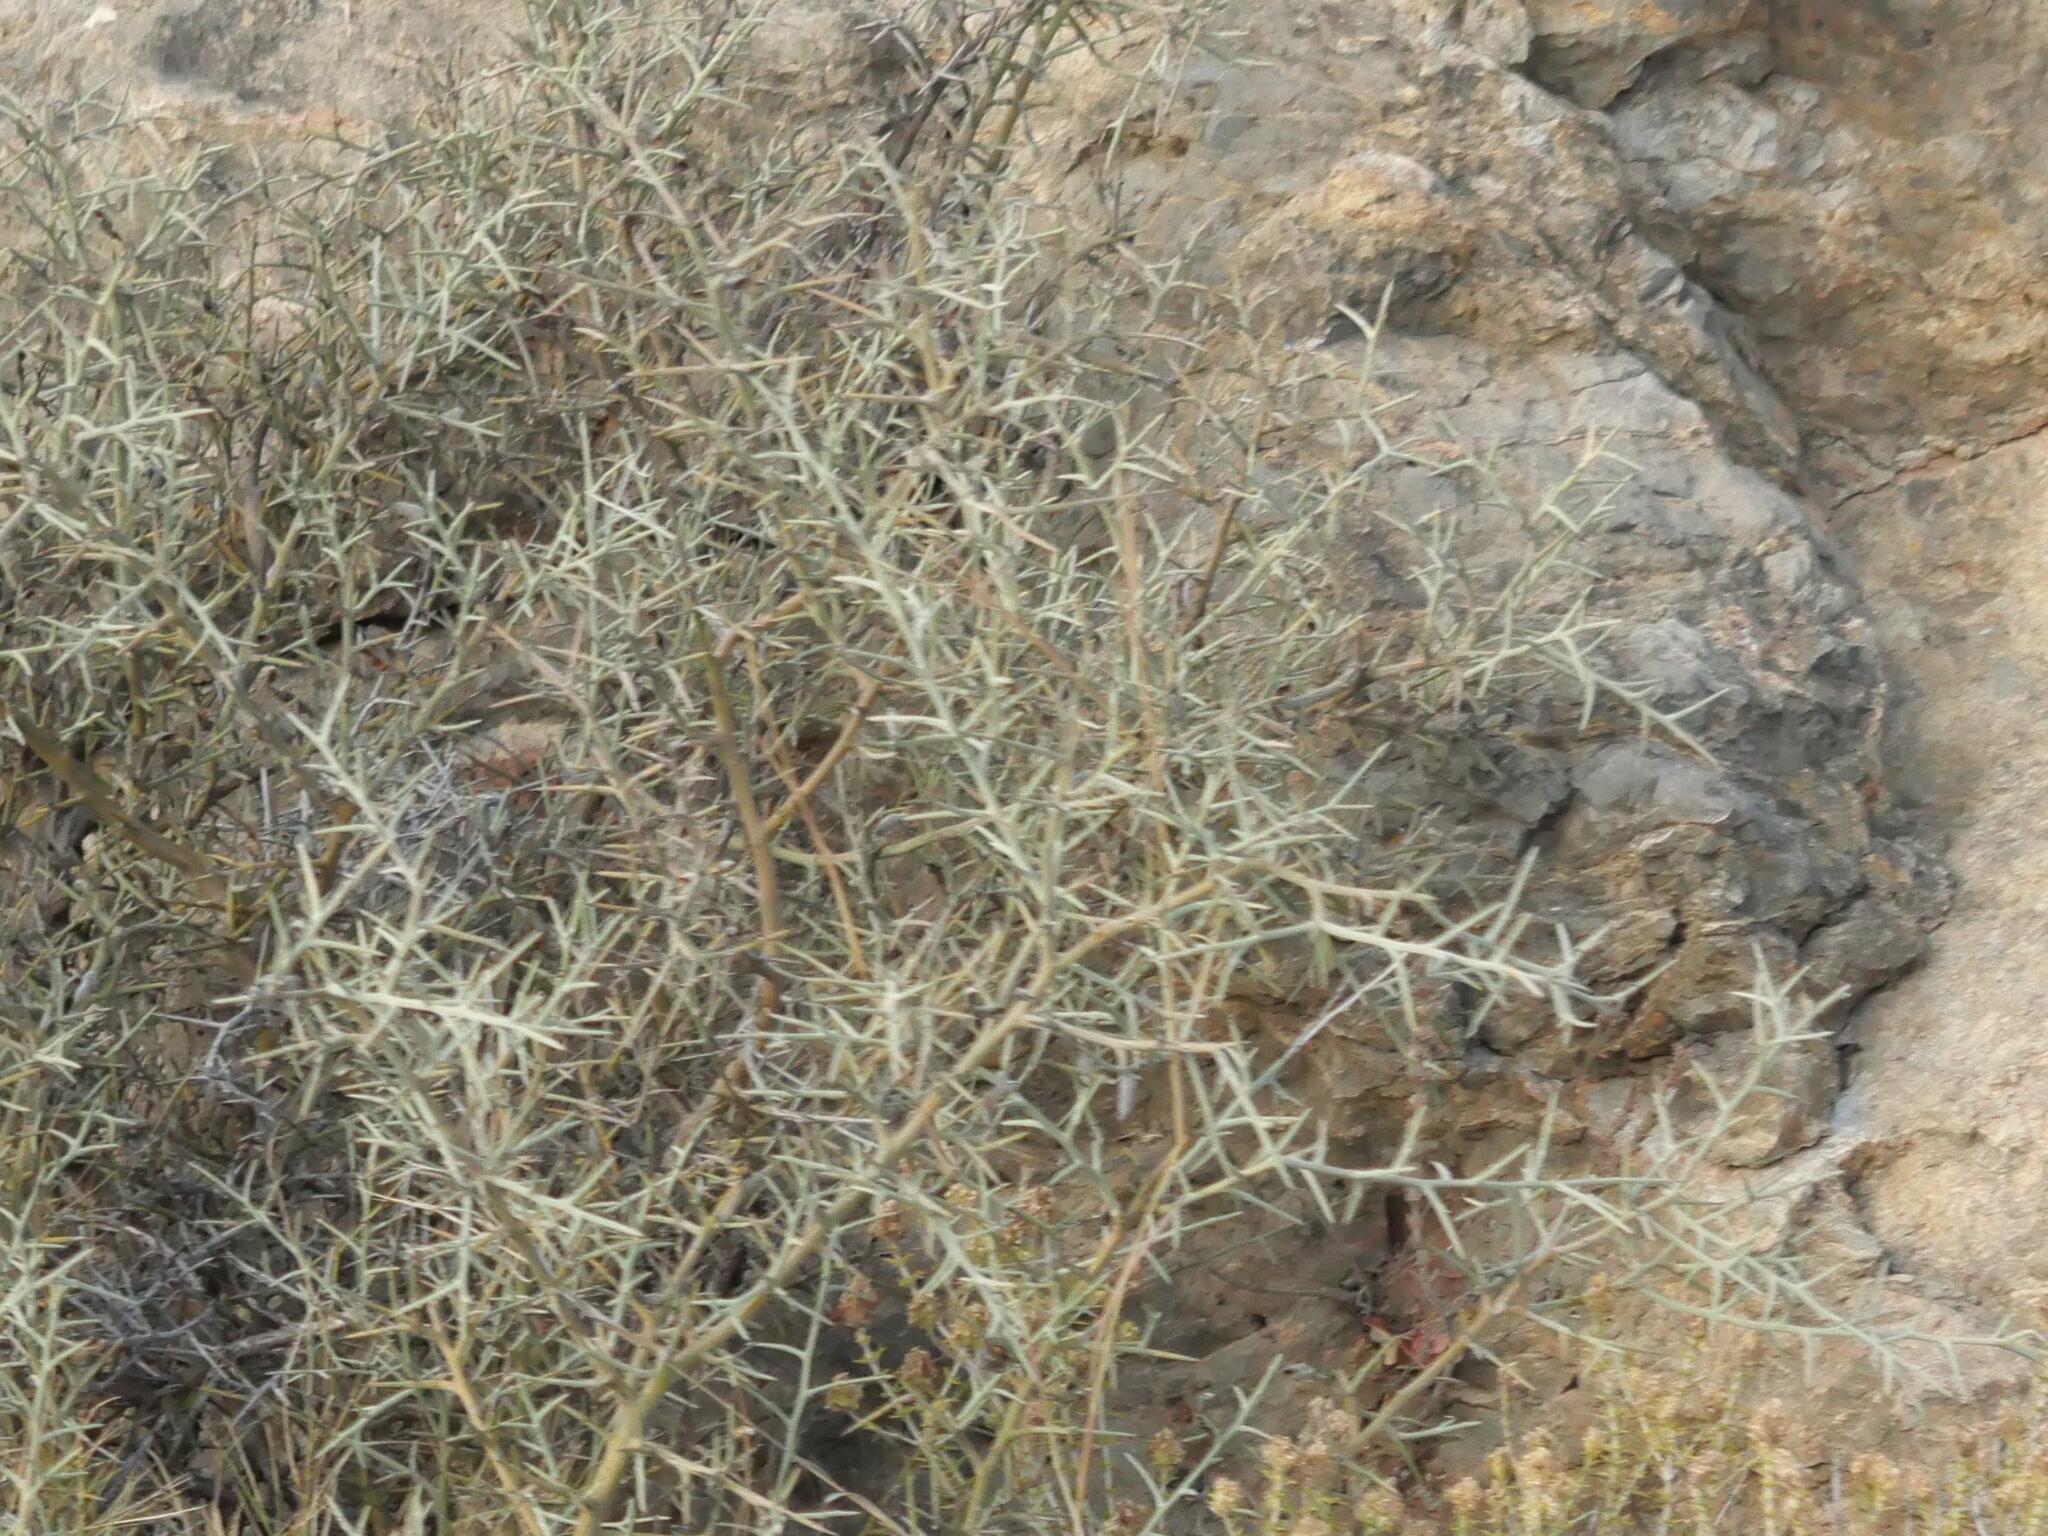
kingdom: Plantae
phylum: Tracheophyta
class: Magnoliopsida
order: Fabales
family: Fabaceae
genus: Calicotome
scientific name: Calicotome villosa
